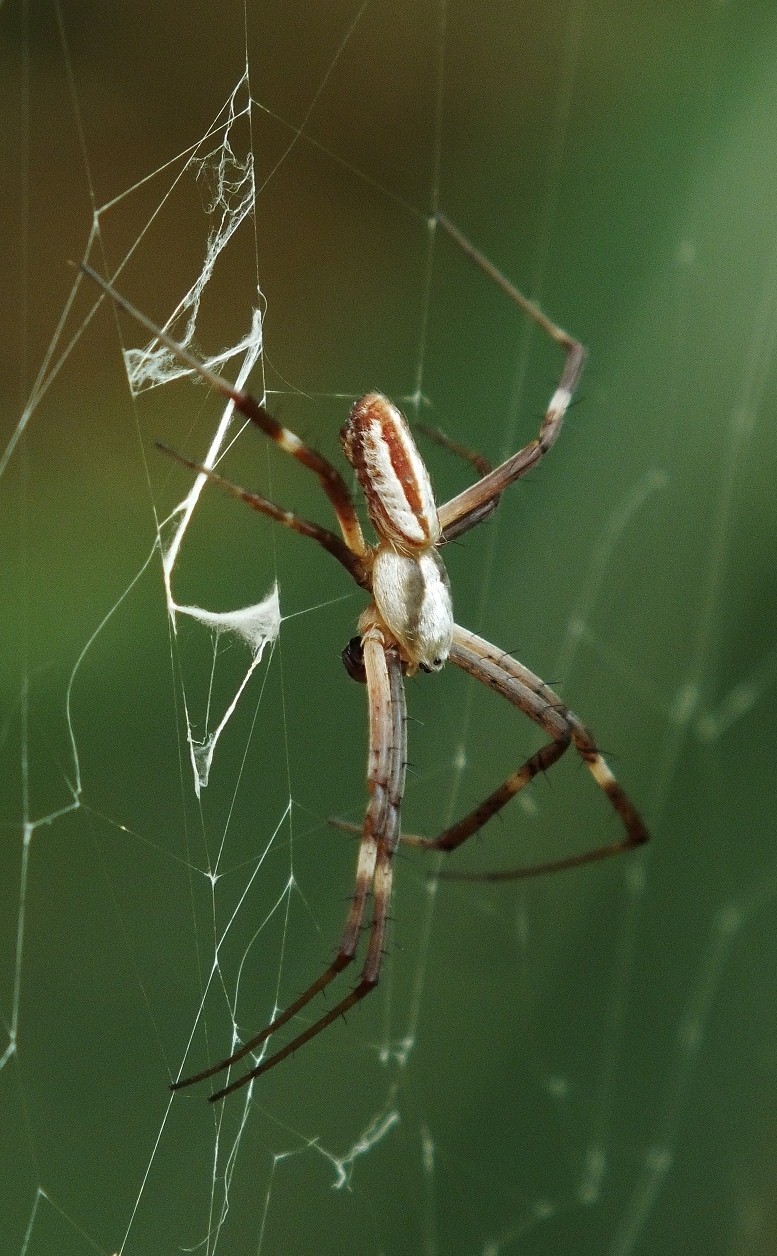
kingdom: Animalia
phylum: Arthropoda
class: Arachnida
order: Araneae
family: Araneidae
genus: Argiope
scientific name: Argiope lobata
